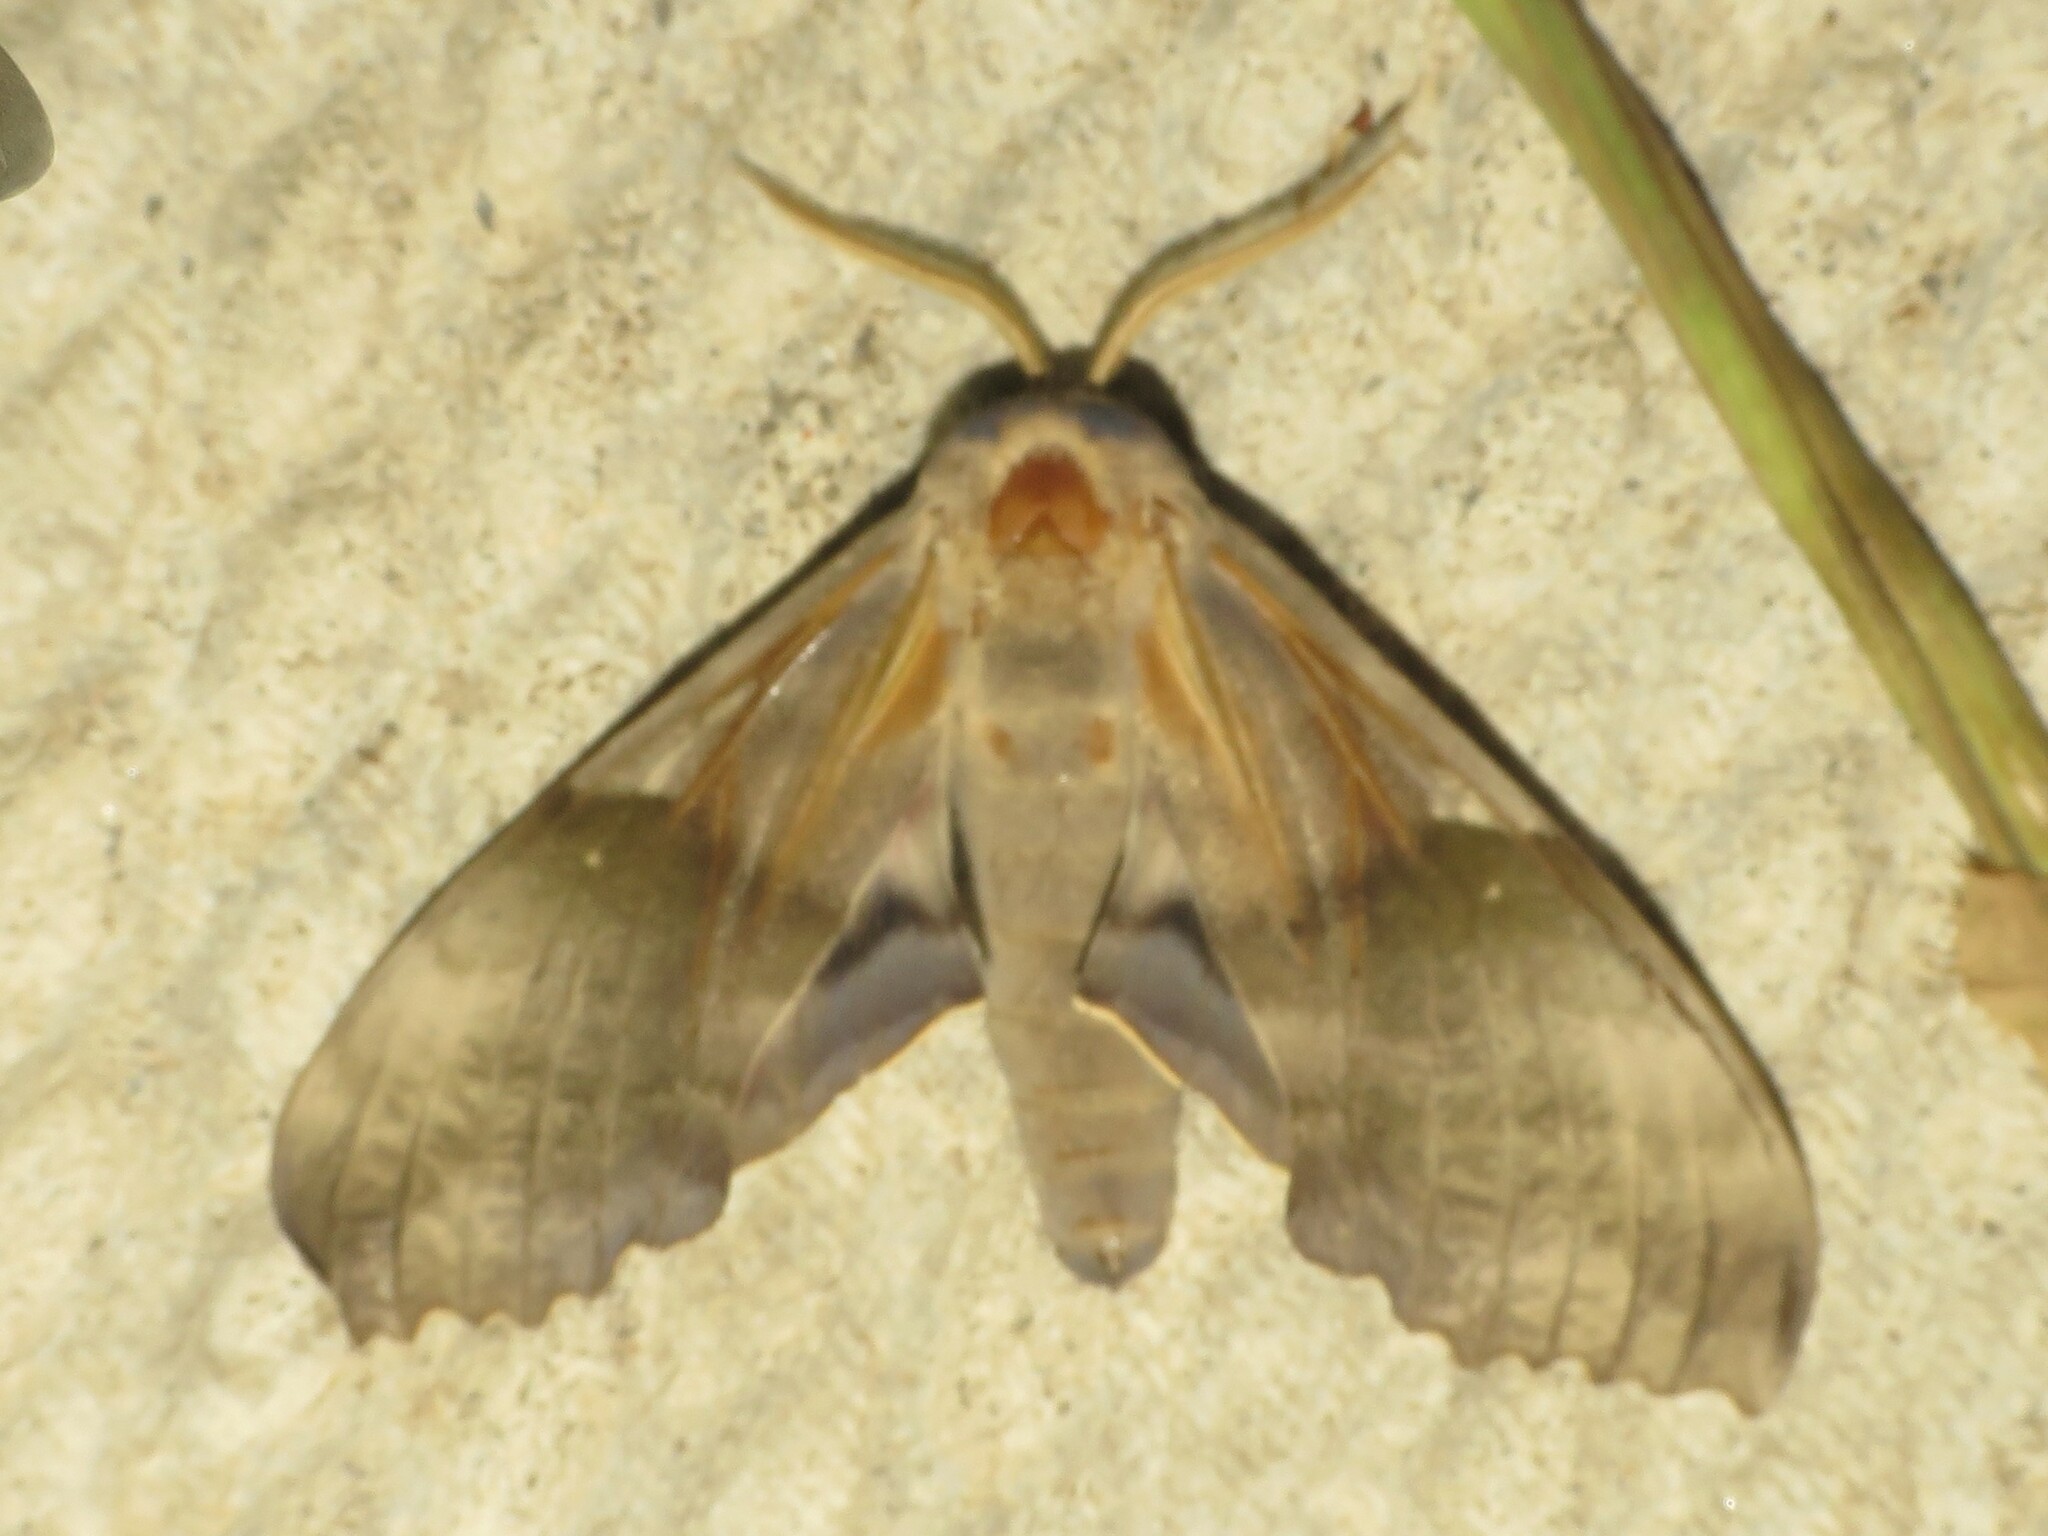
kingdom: Animalia
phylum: Arthropoda
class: Insecta
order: Lepidoptera
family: Sphingidae
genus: Pachysphinx
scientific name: Pachysphinx modesta
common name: Big poplar sphinx
